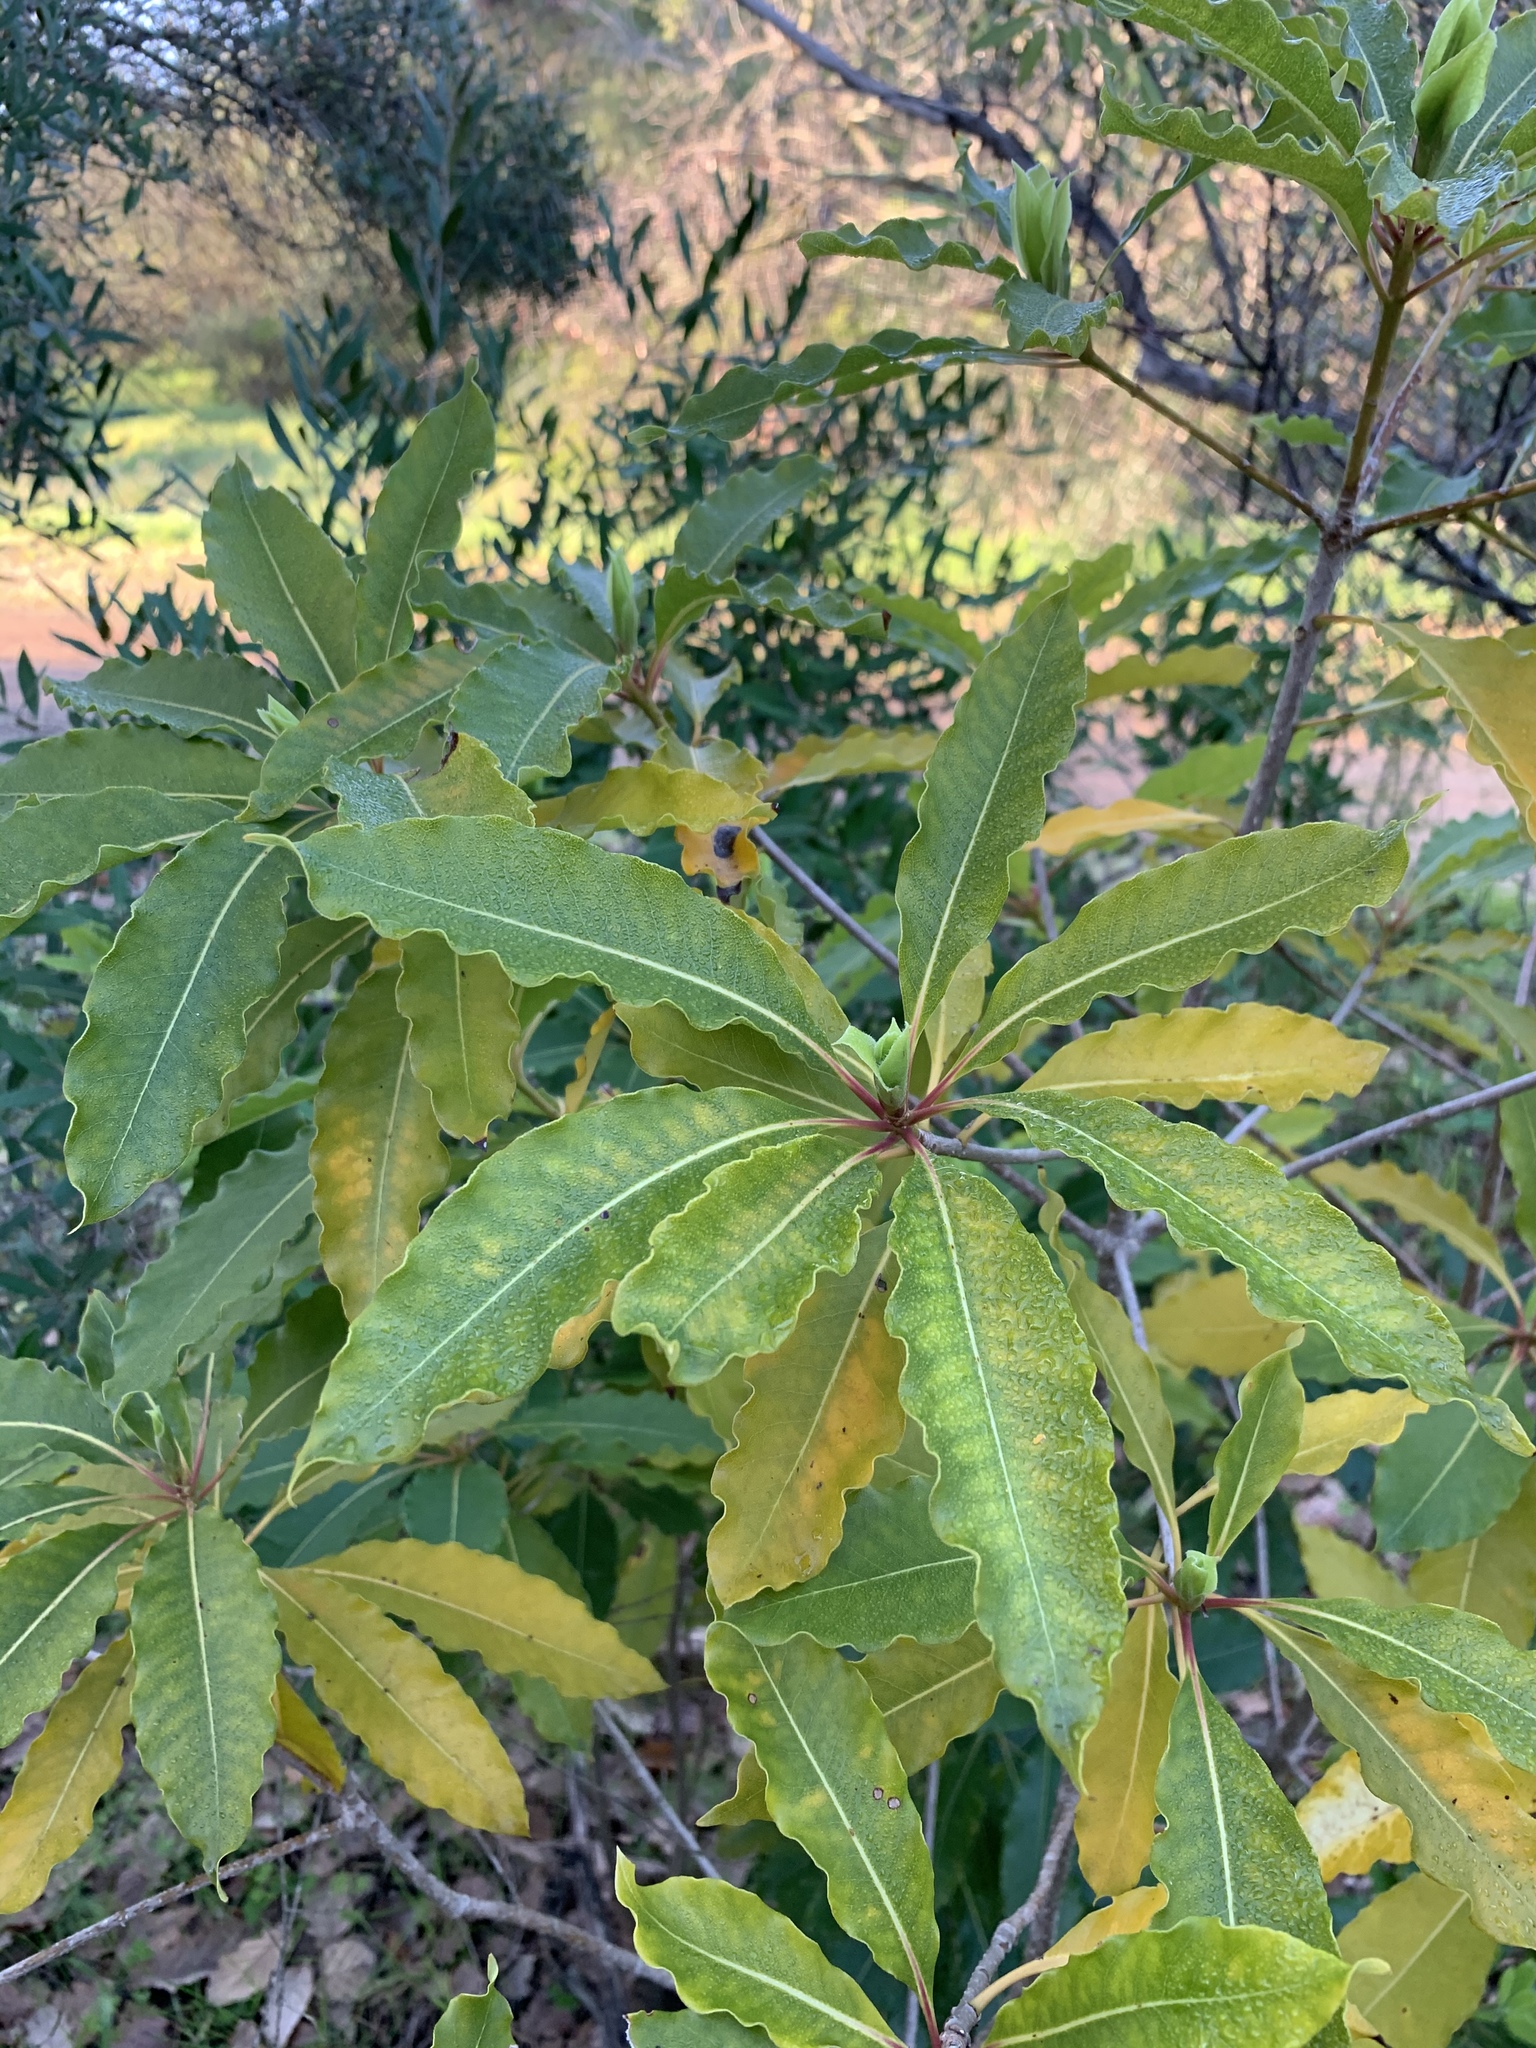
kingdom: Plantae
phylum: Tracheophyta
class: Magnoliopsida
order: Apiales
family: Pittosporaceae
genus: Pittosporum
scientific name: Pittosporum undulatum
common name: Australian cheesewood
